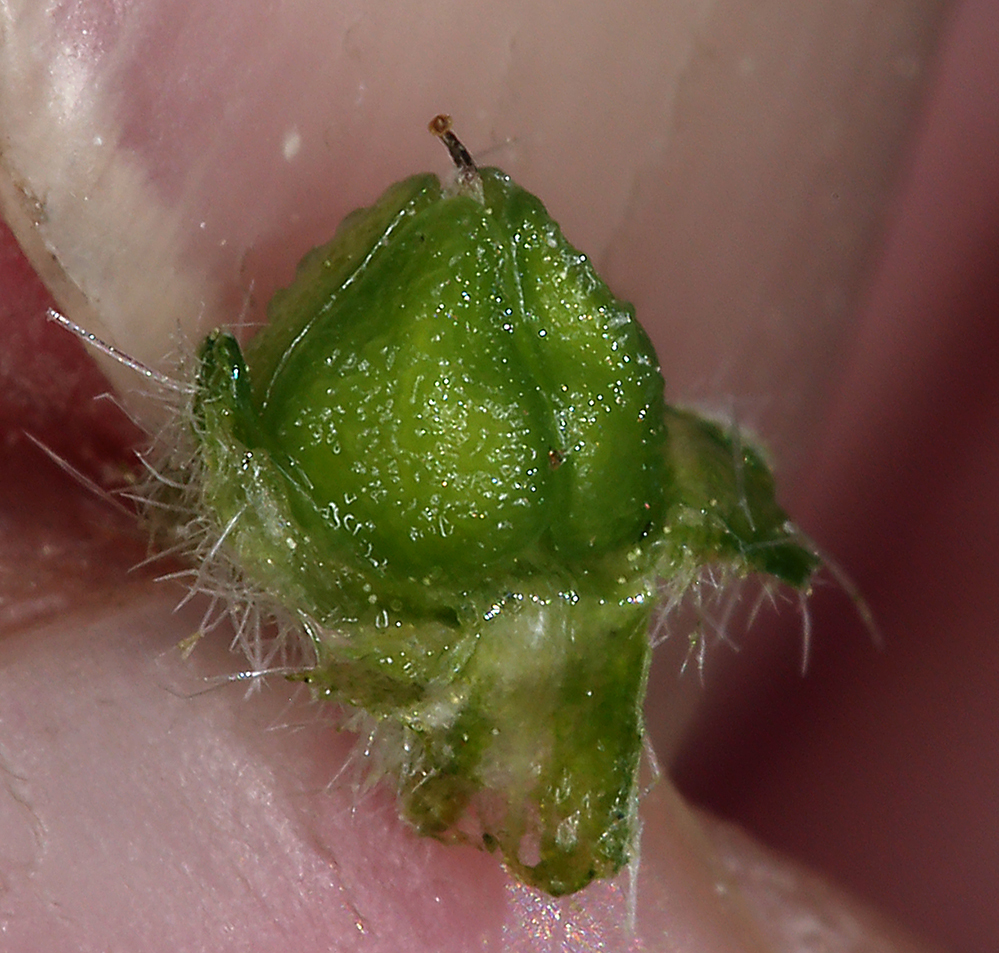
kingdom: Plantae
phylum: Tracheophyta
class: Magnoliopsida
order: Boraginales
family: Boraginaceae
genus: Oreocarya
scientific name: Oreocarya hoffmannii
